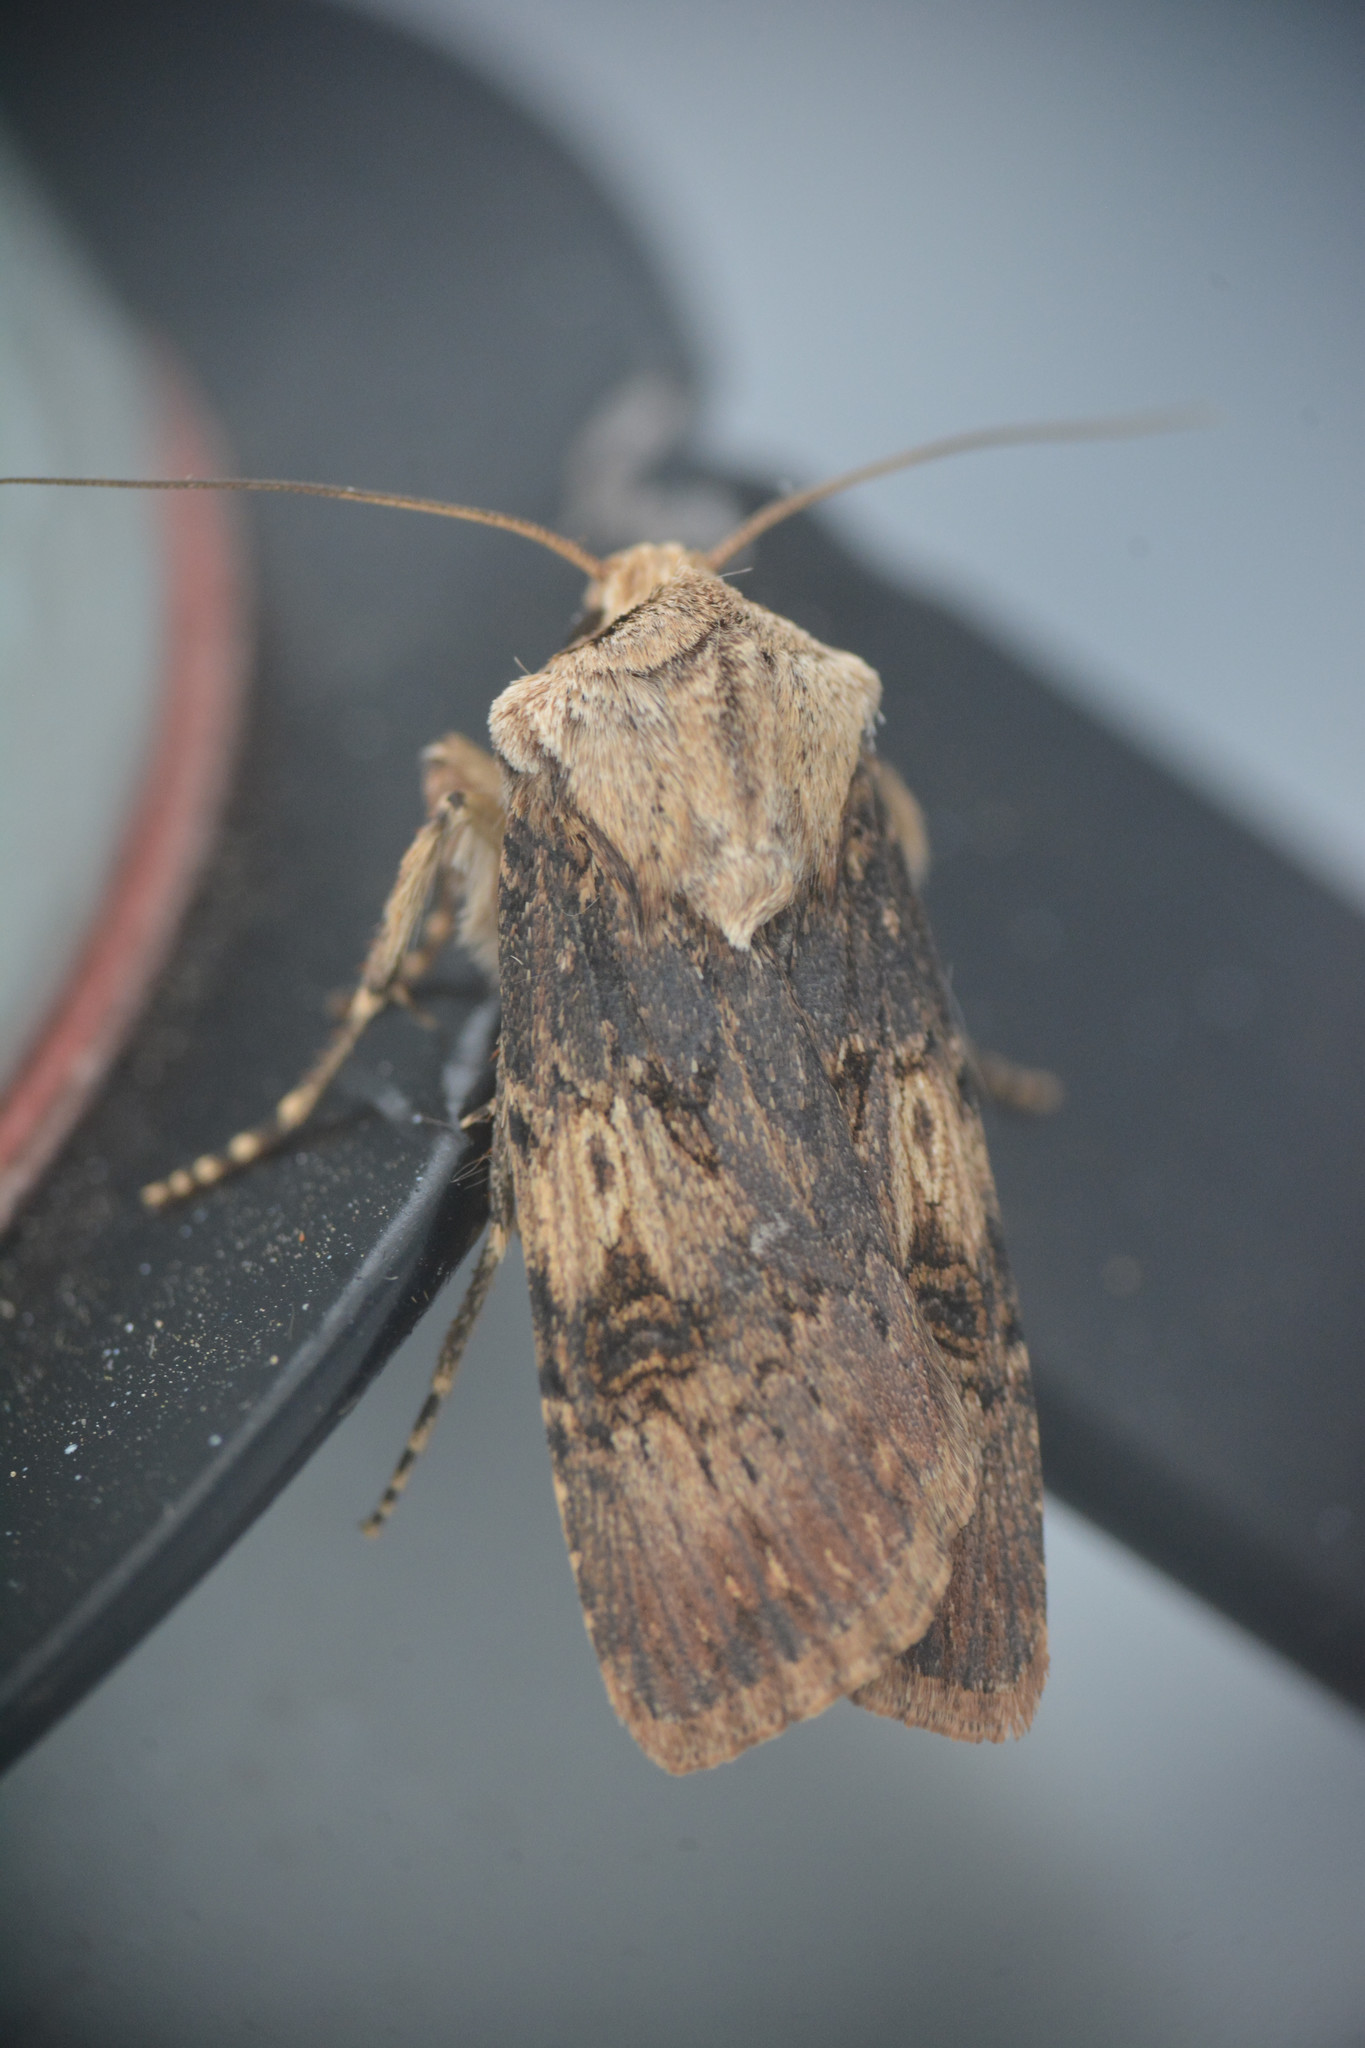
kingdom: Animalia
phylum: Arthropoda
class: Insecta
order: Lepidoptera
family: Noctuidae
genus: Agrotis
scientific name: Agrotis puta
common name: Shuttle-shaped dart
